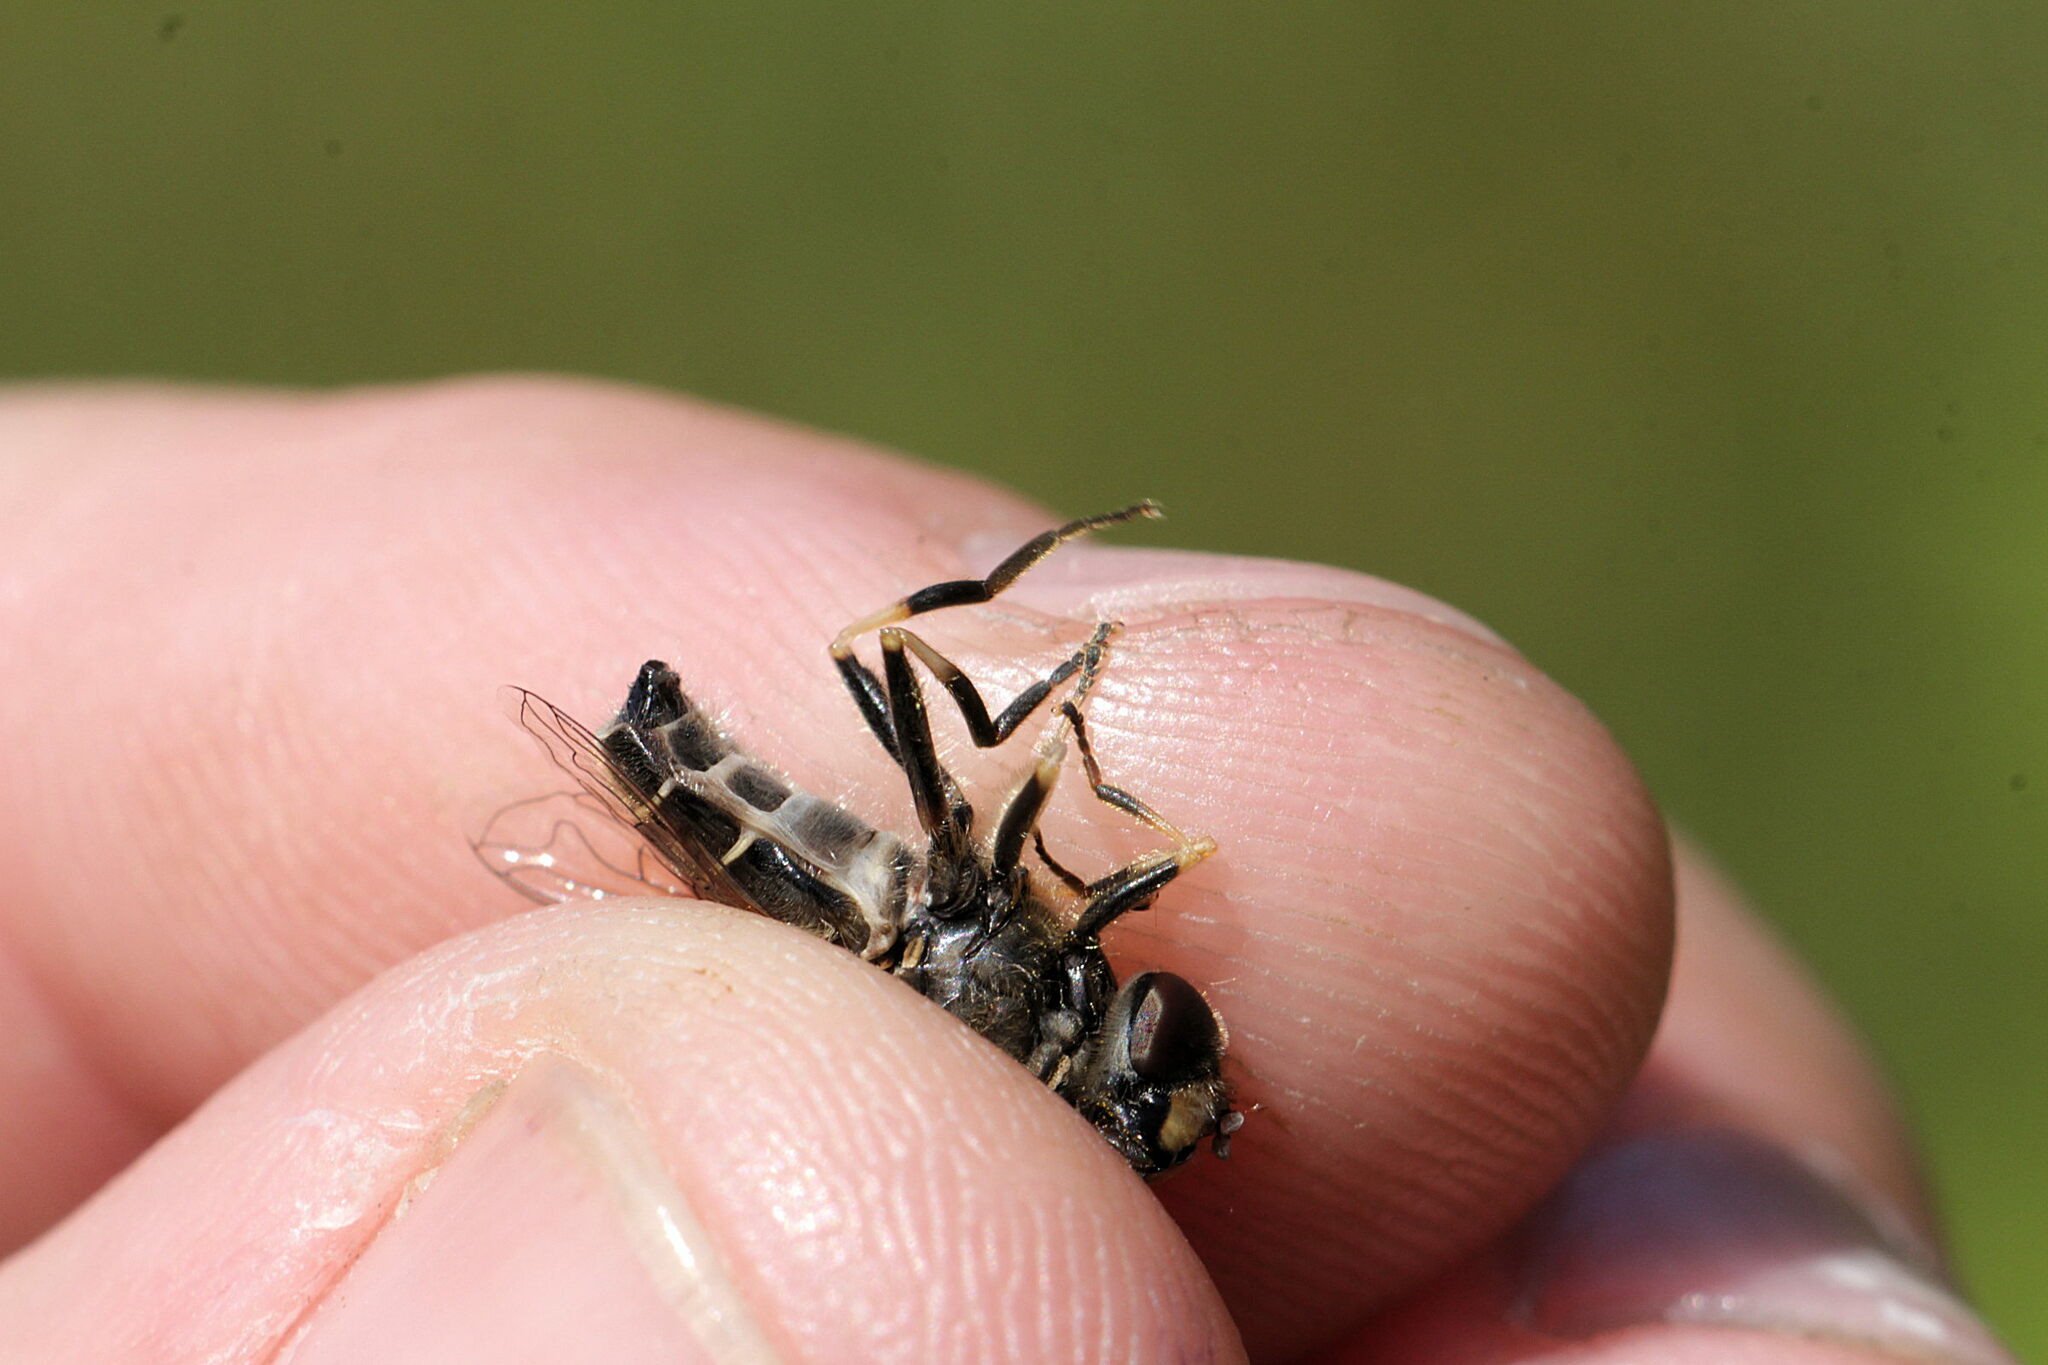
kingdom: Animalia
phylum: Arthropoda
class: Insecta
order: Diptera
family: Syrphidae
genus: Eristalis
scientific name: Eristalis nemorum
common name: Orange-spined drone fly
